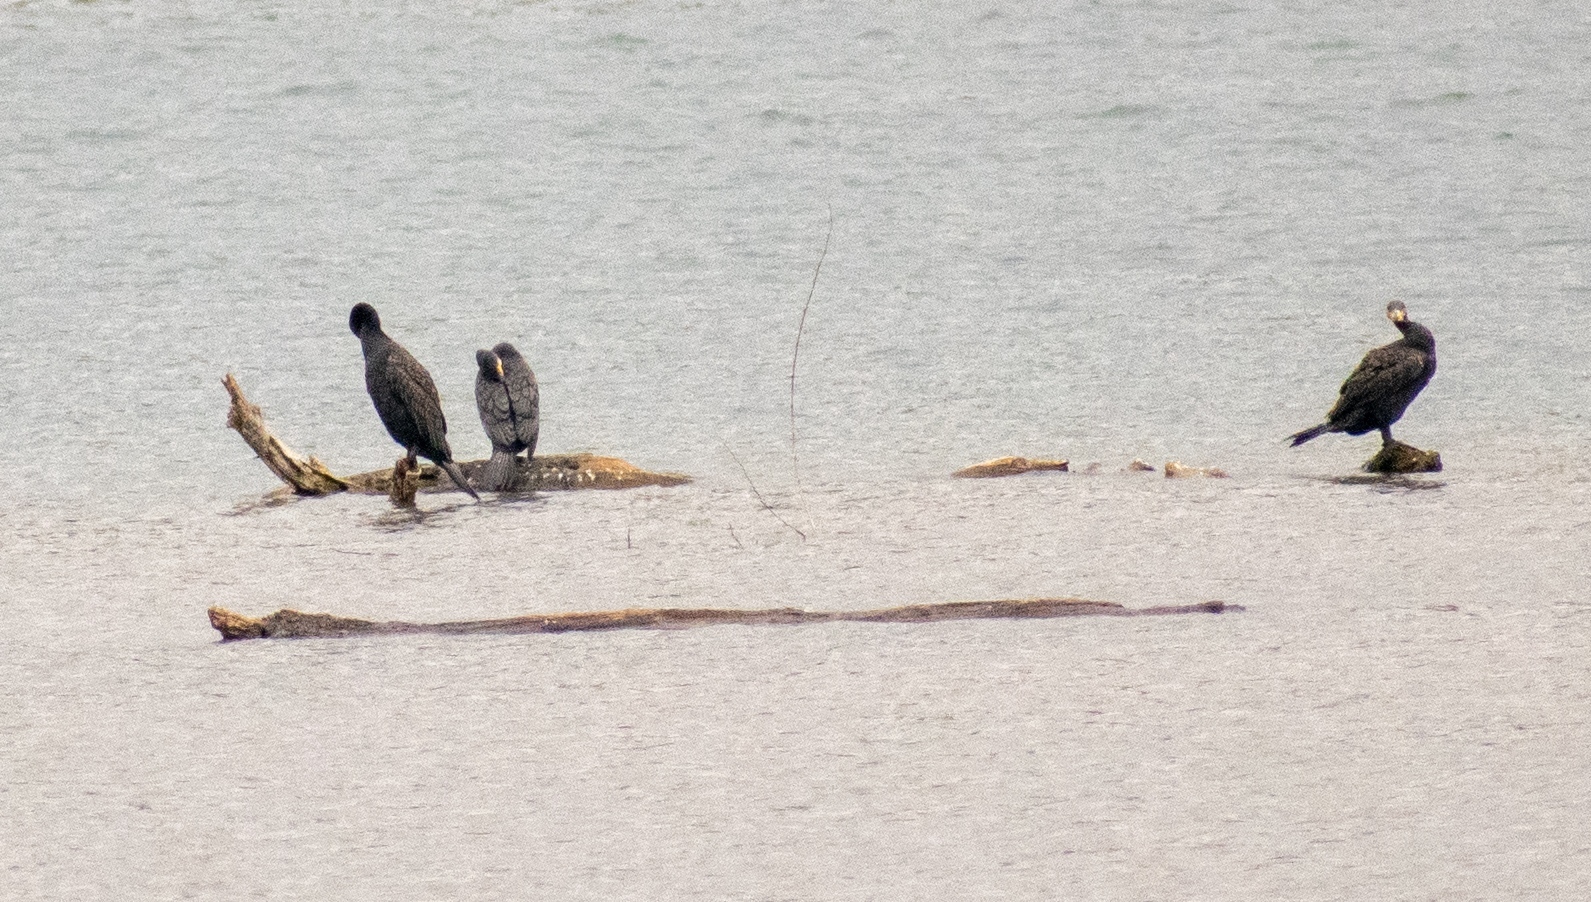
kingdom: Animalia
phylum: Chordata
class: Aves
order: Suliformes
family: Phalacrocoracidae
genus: Phalacrocorax
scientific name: Phalacrocorax carbo
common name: Great cormorant
